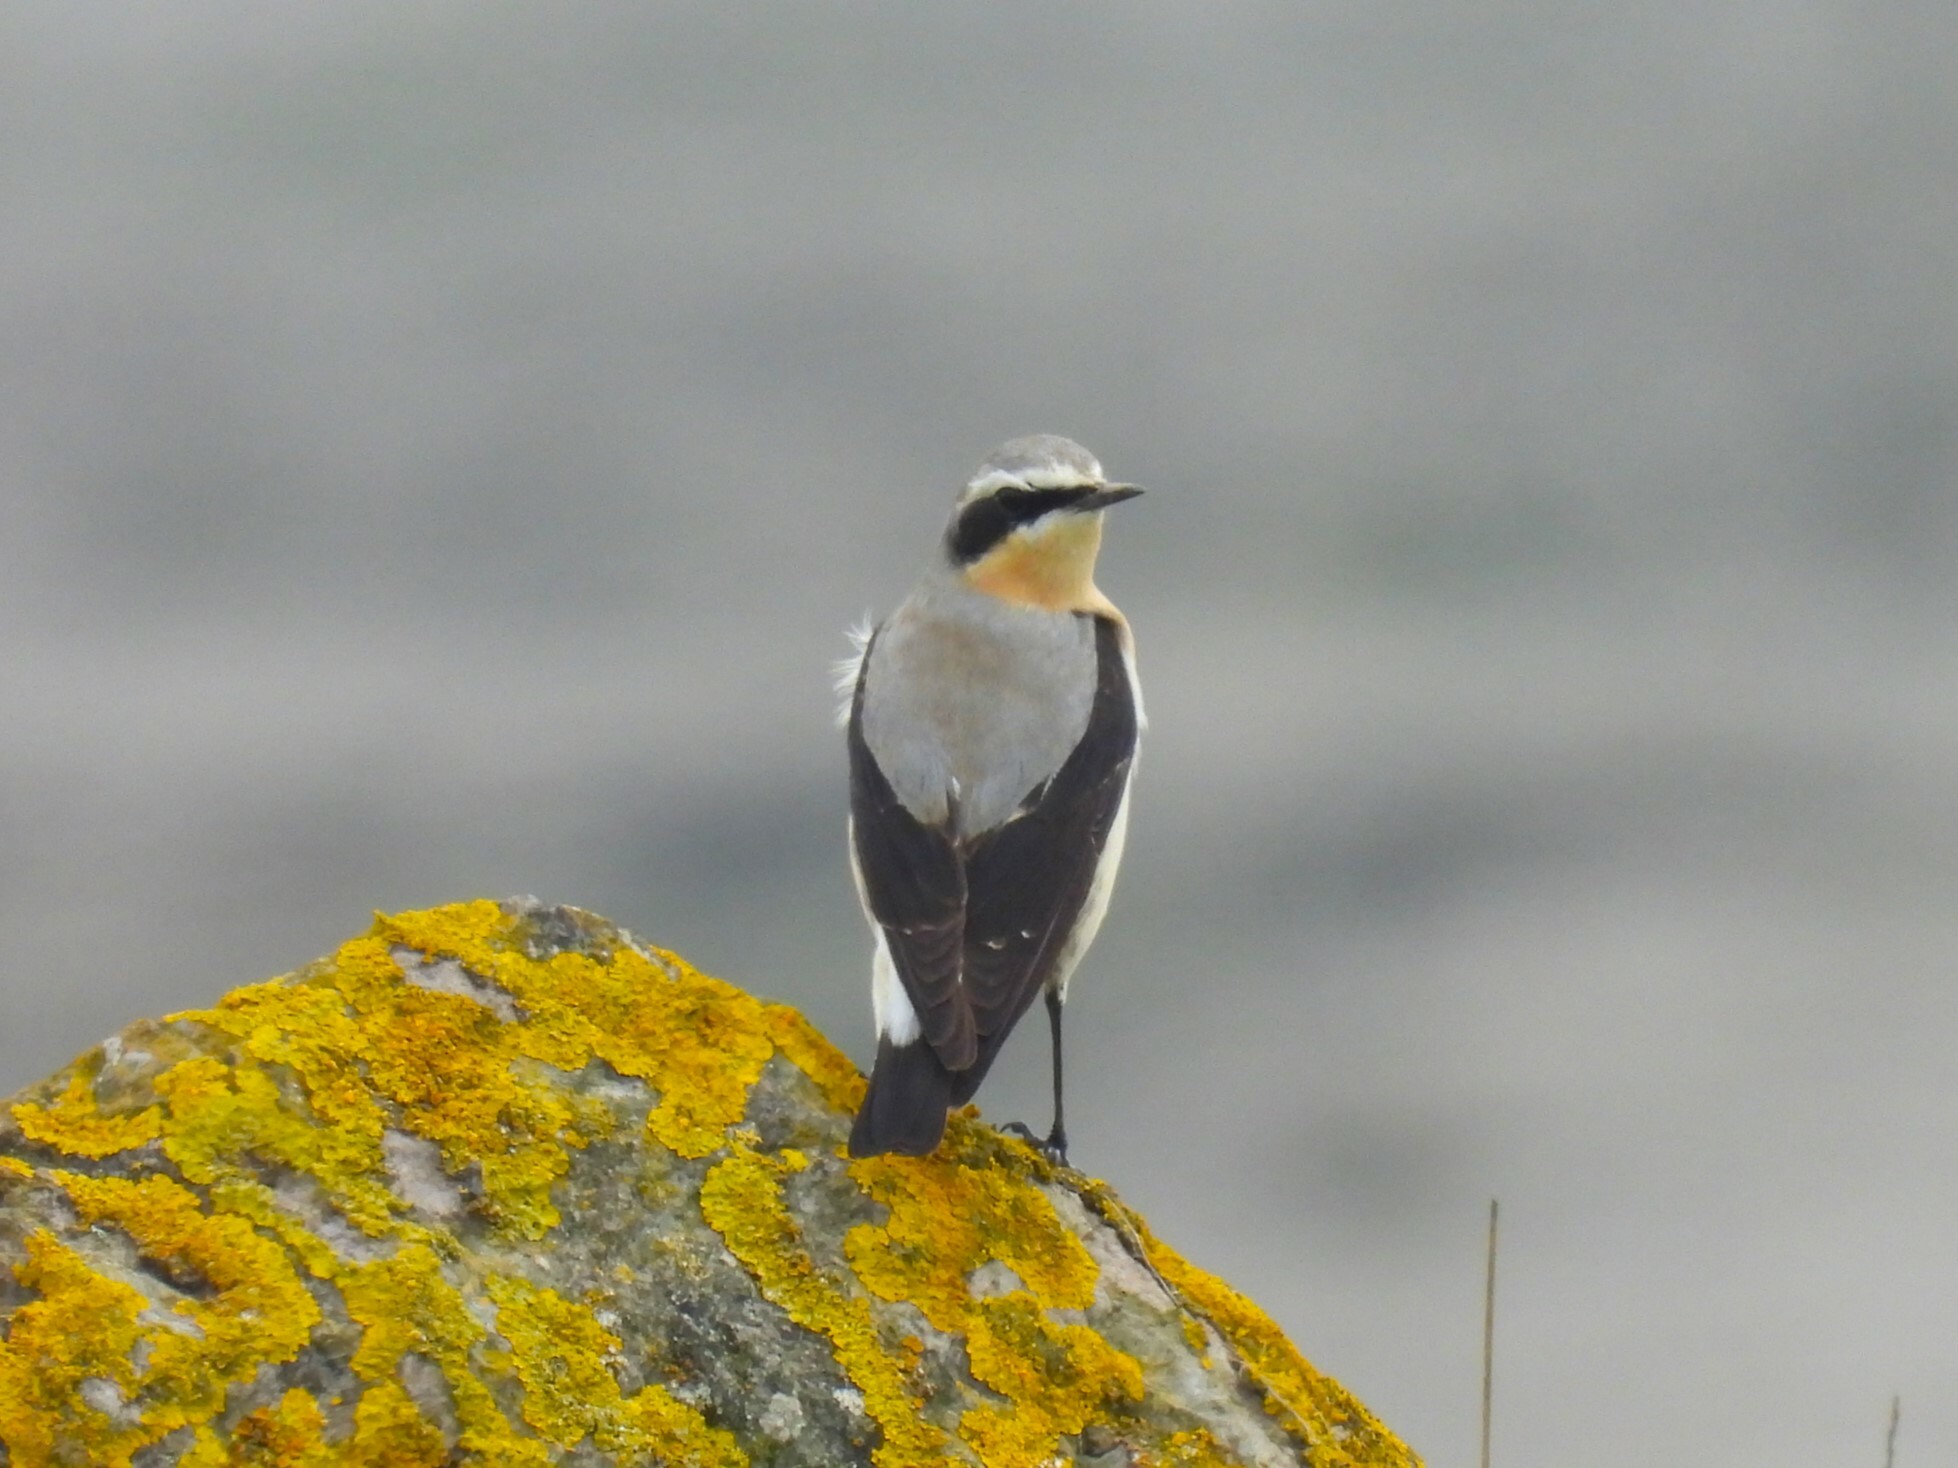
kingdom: Animalia
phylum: Chordata
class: Aves
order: Passeriformes
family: Muscicapidae
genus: Oenanthe
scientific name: Oenanthe oenanthe
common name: Northern wheatear
